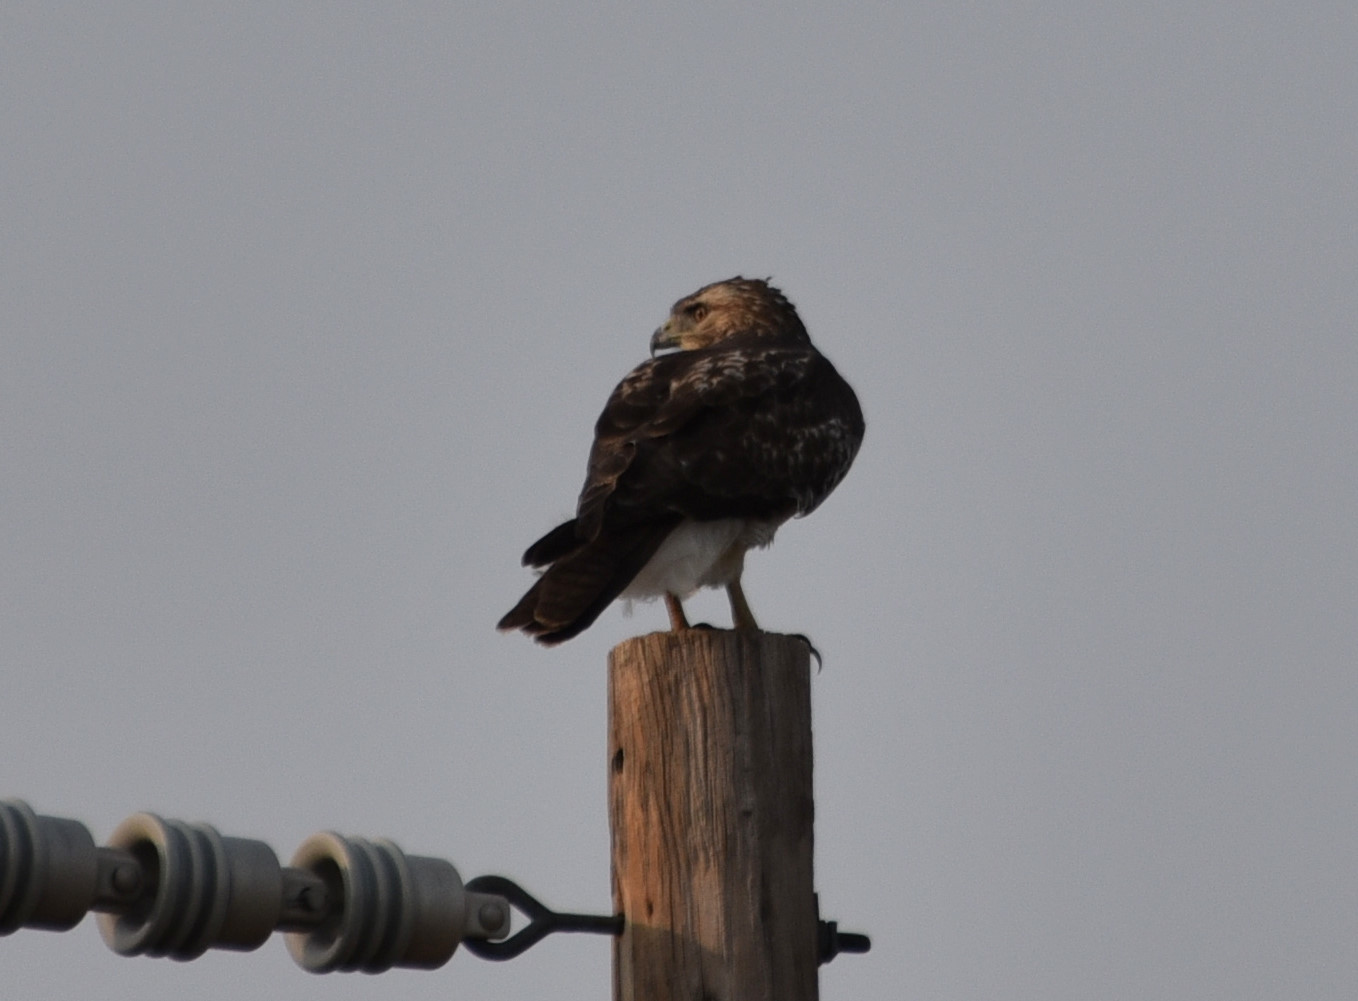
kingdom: Animalia
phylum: Chordata
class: Aves
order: Accipitriformes
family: Accipitridae
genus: Buteo
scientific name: Buteo jamaicensis
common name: Red-tailed hawk
